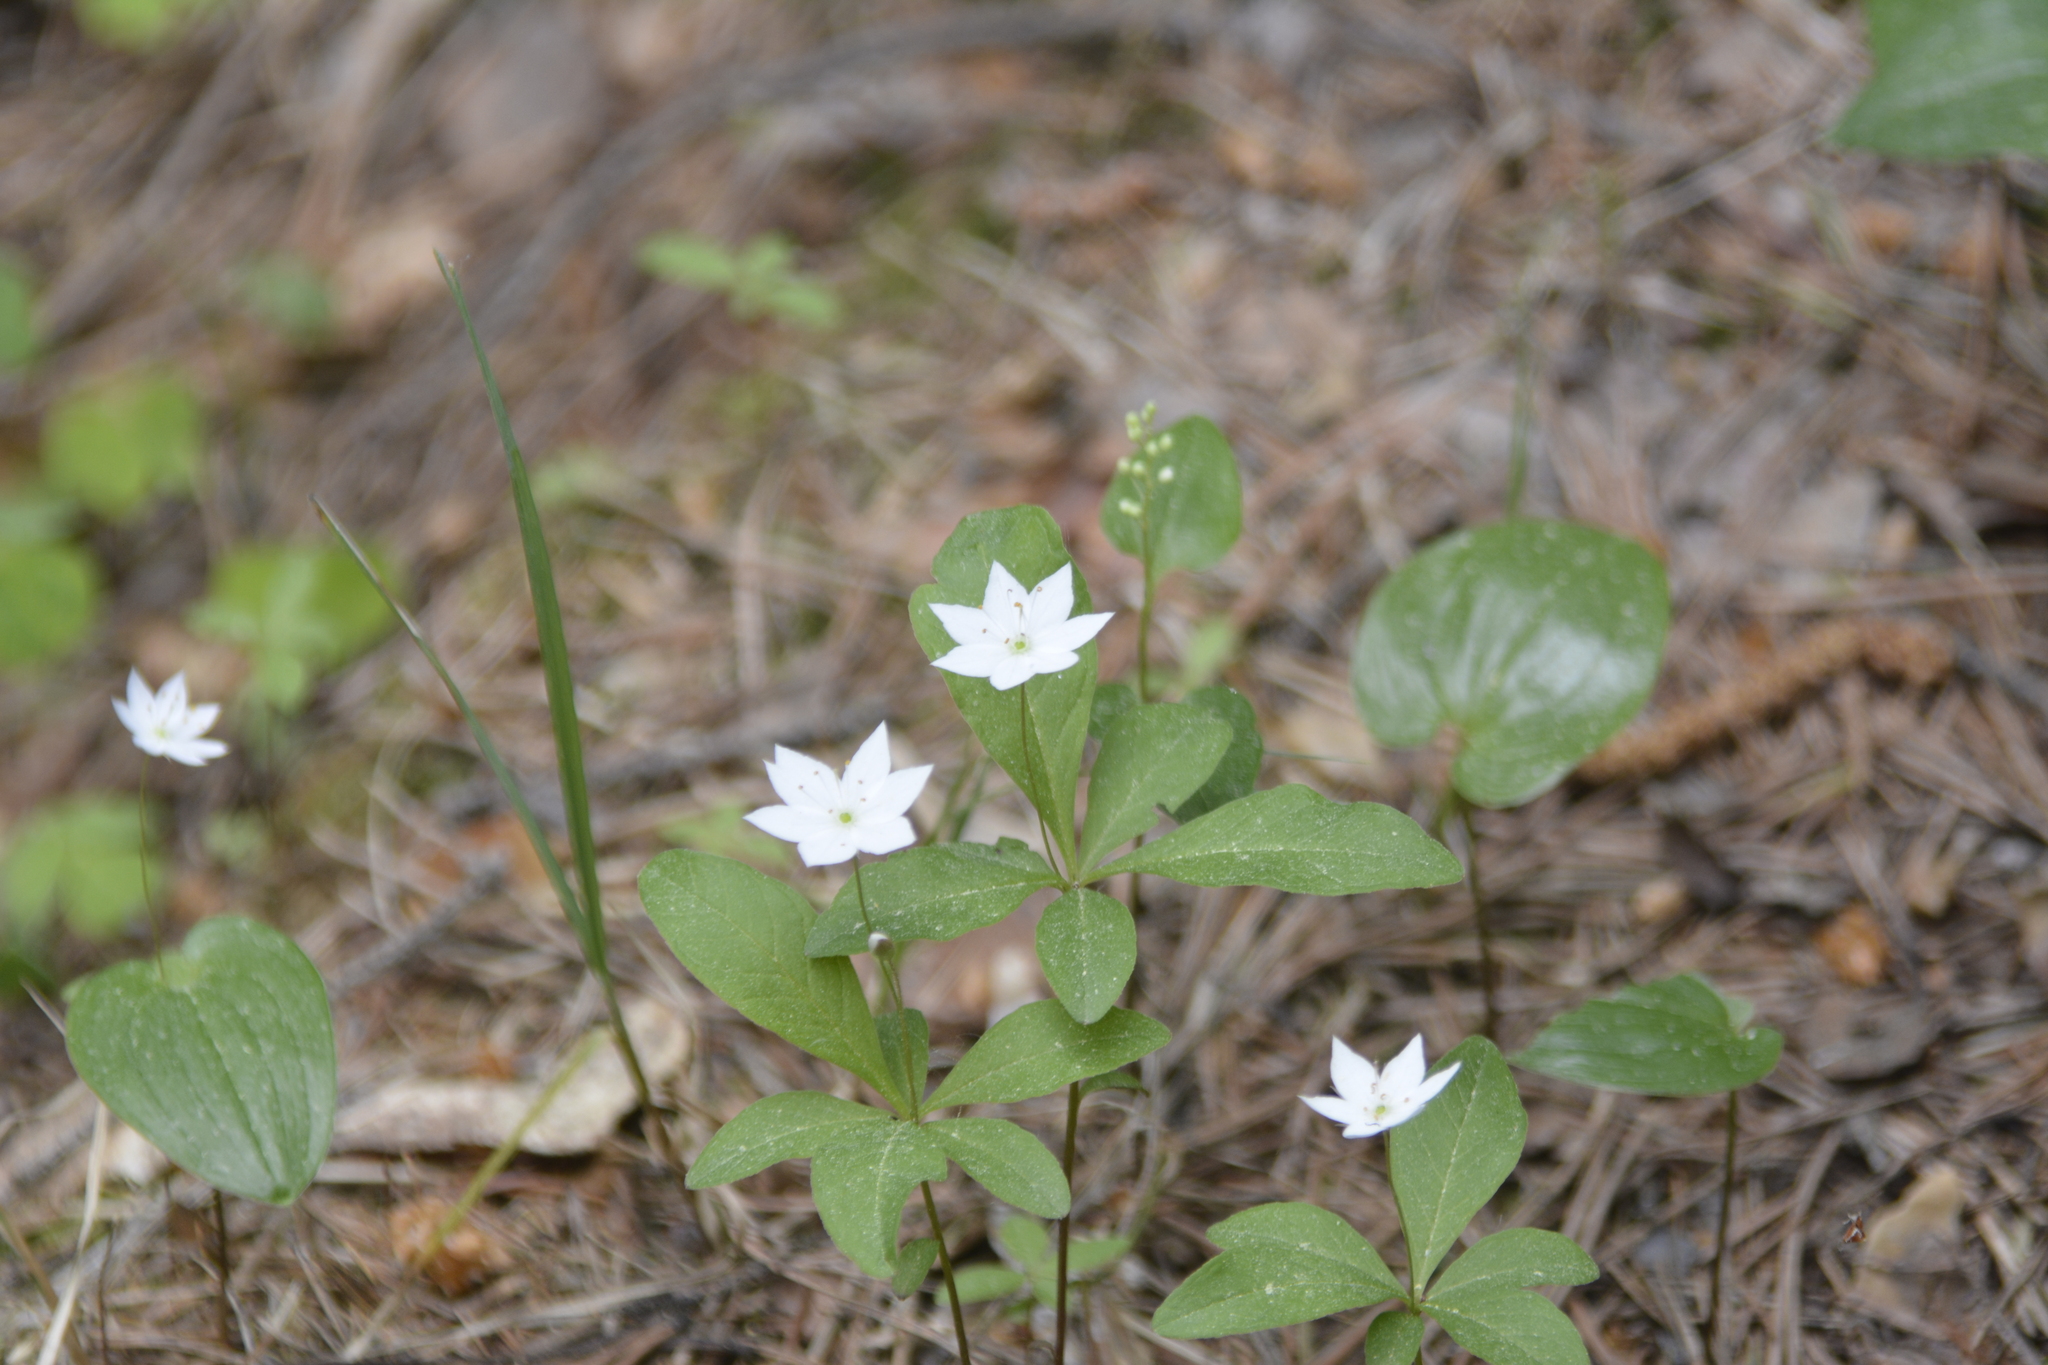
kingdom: Plantae
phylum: Tracheophyta
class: Magnoliopsida
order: Ericales
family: Primulaceae
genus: Lysimachia
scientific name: Lysimachia europaea
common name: Arctic starflower
